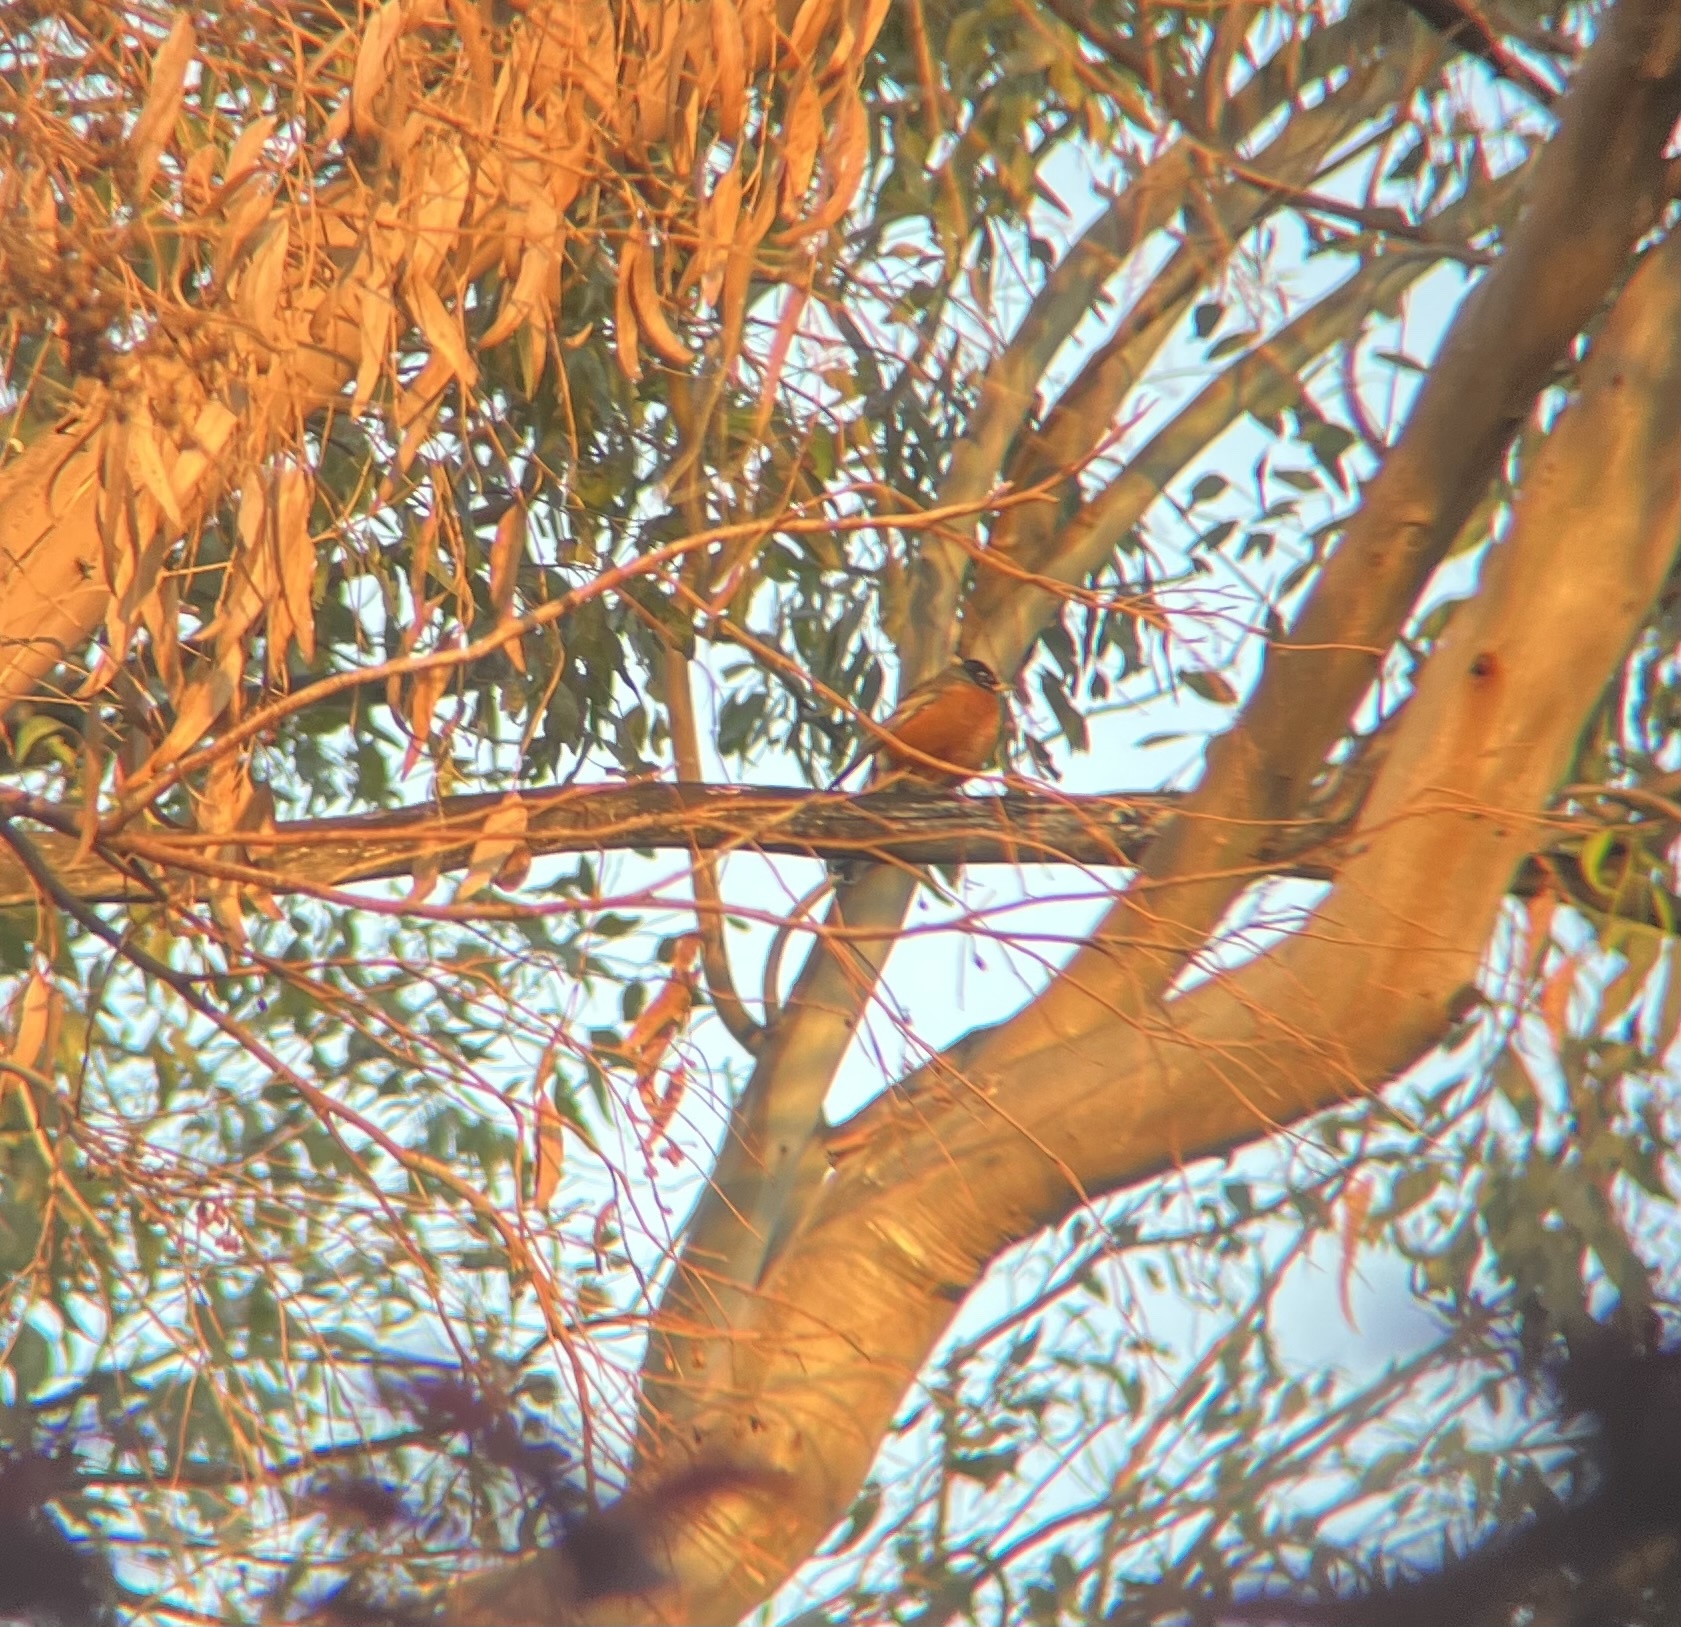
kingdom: Animalia
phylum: Chordata
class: Aves
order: Passeriformes
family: Turdidae
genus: Turdus
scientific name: Turdus migratorius
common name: American robin
